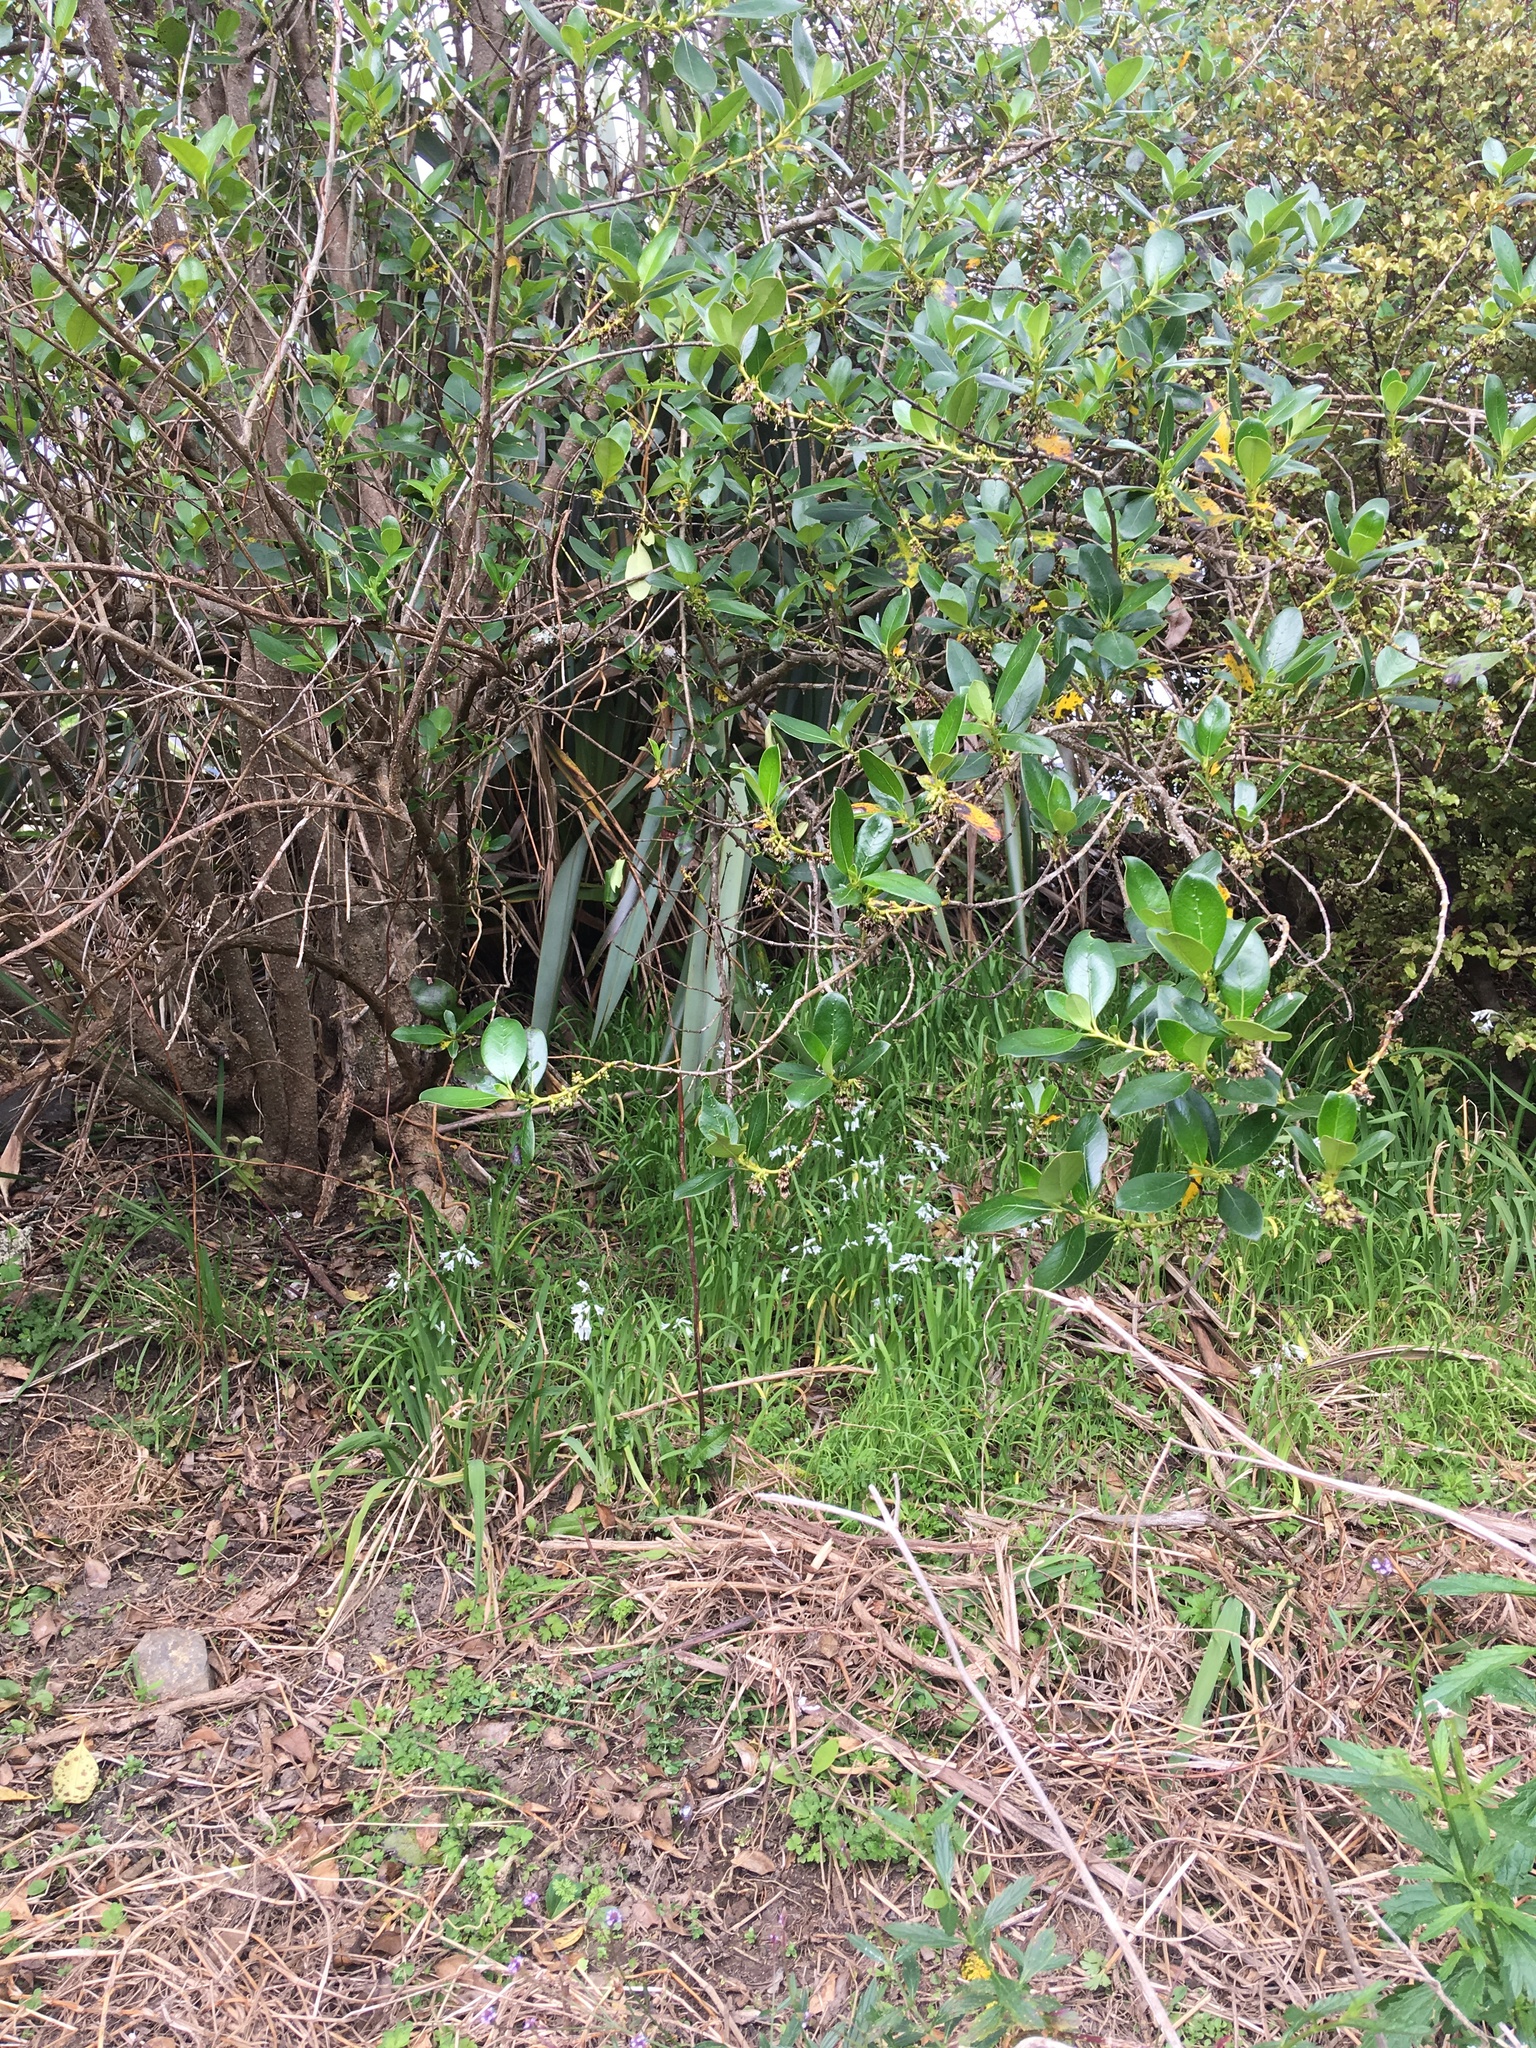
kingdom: Plantae
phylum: Tracheophyta
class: Liliopsida
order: Asparagales
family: Amaryllidaceae
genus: Allium
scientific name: Allium triquetrum
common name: Three-cornered garlic
